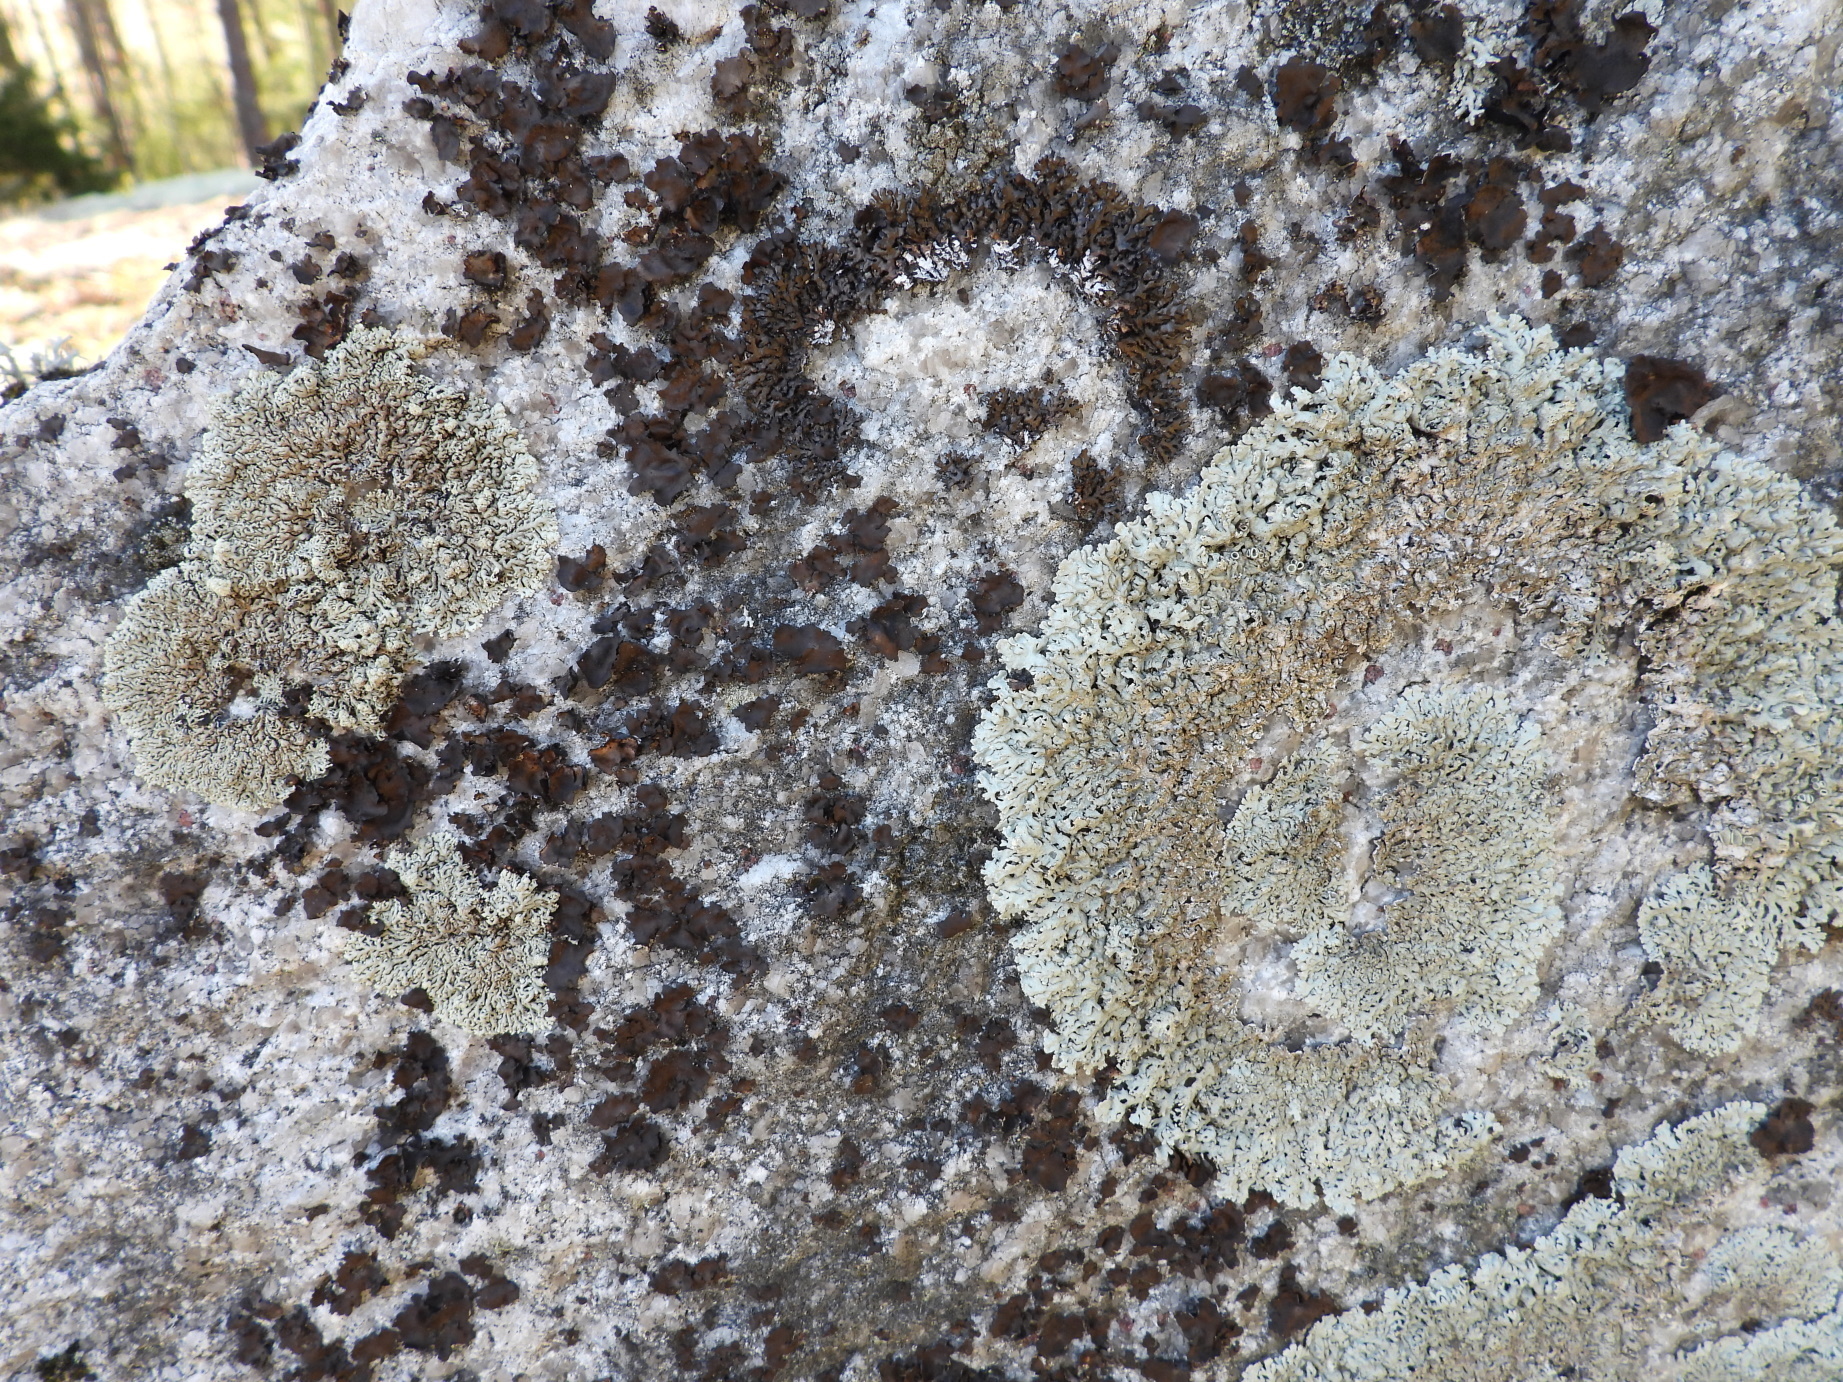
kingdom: Fungi
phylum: Ascomycota
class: Lecanoromycetes
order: Lecanorales
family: Parmeliaceae
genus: Arctoparmelia
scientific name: Arctoparmelia centrifuga
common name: Concentric ring lichen
